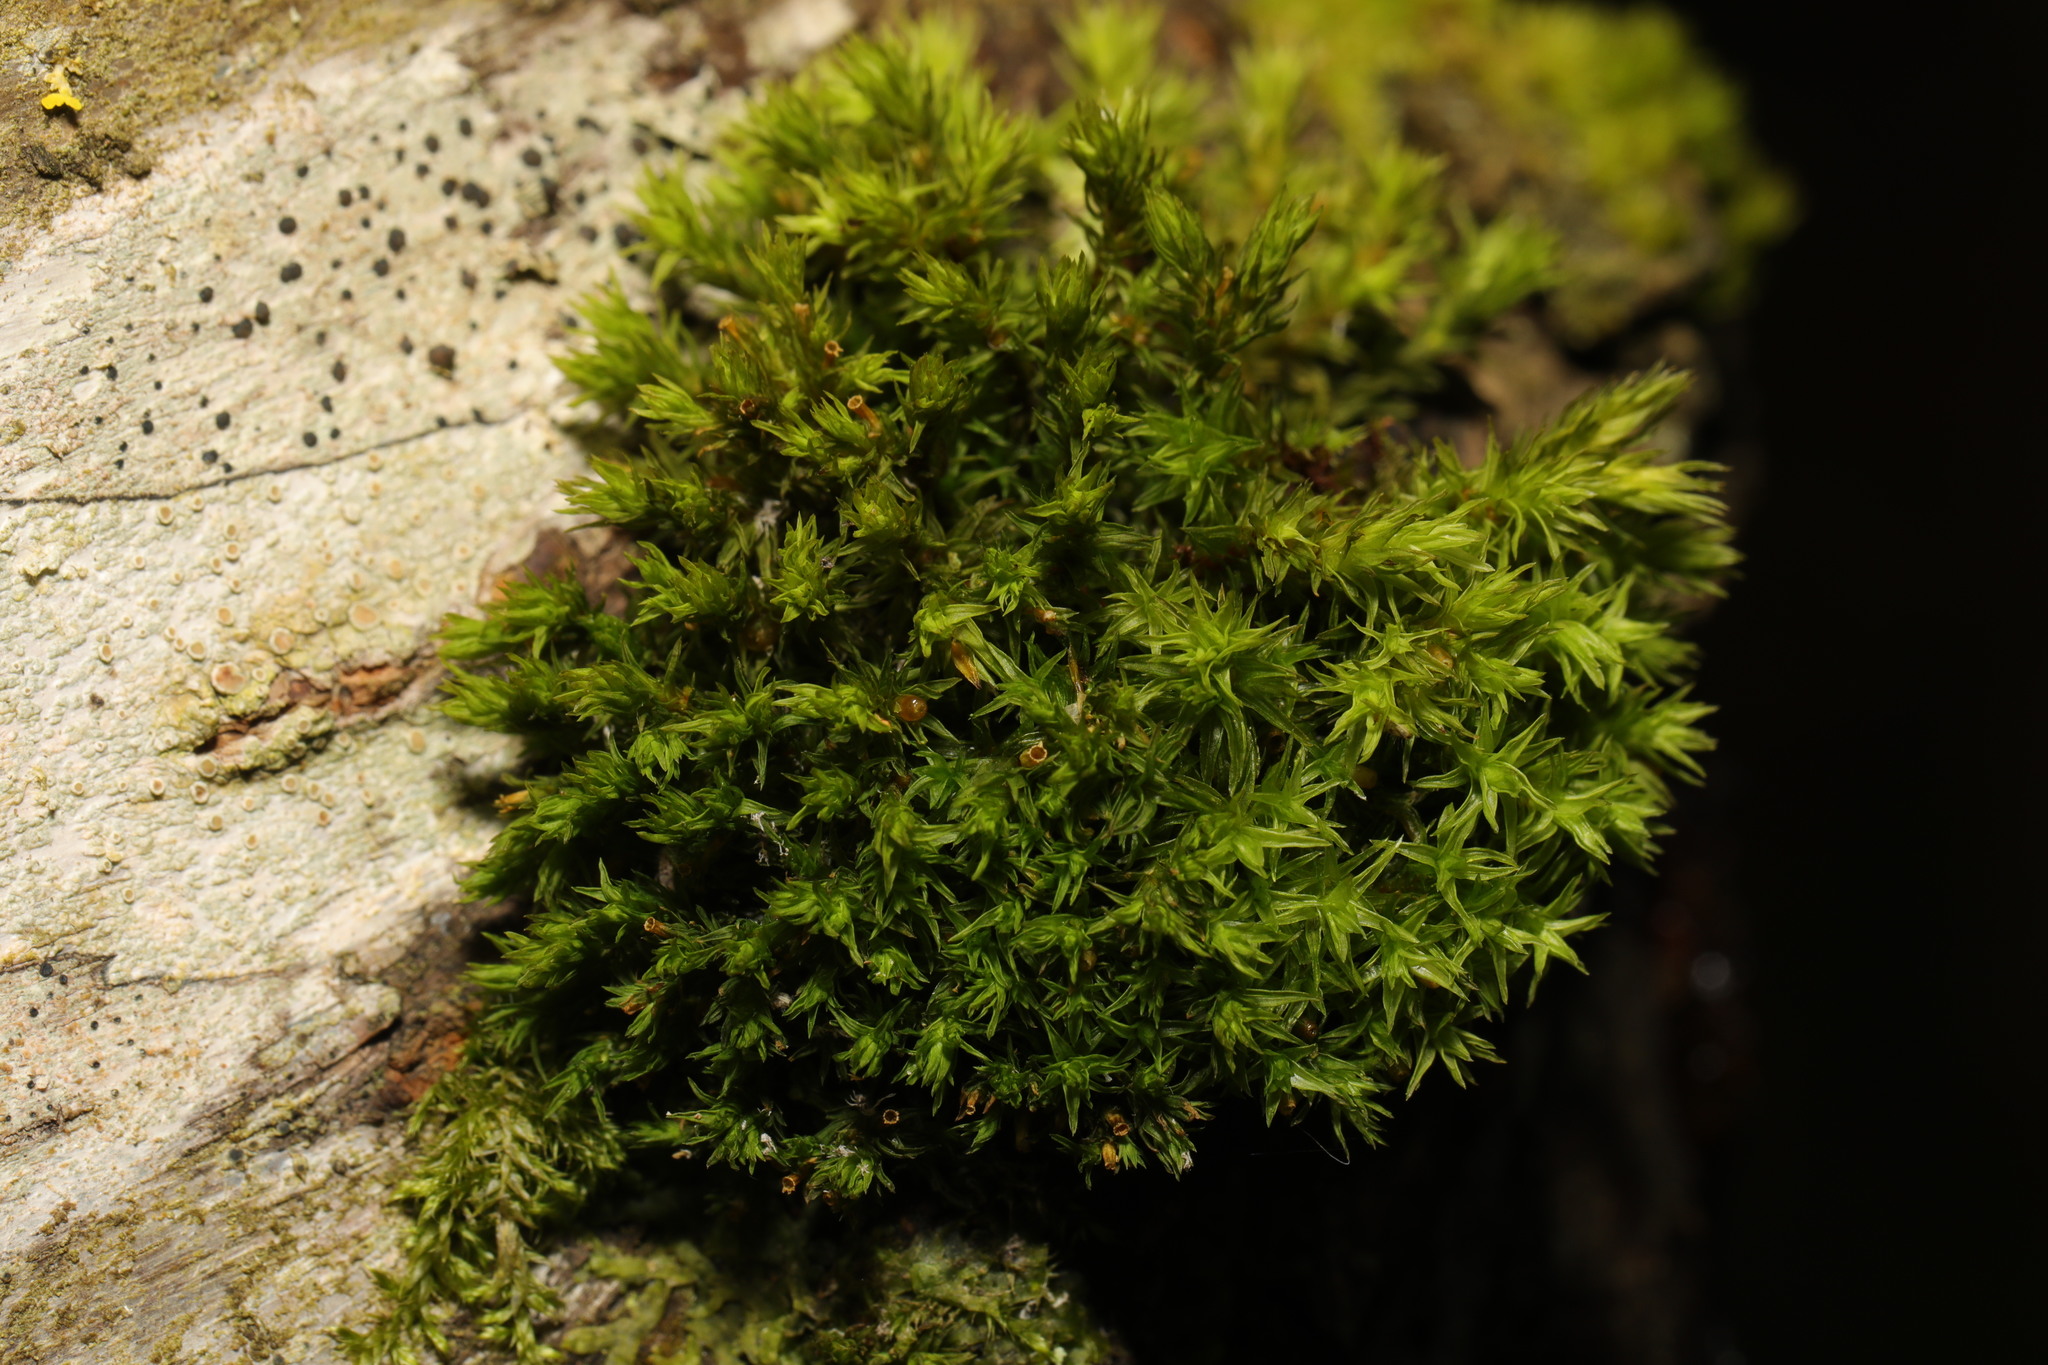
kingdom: Plantae
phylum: Bryophyta
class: Bryopsida
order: Orthotrichales
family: Orthotrichaceae
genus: Lewinskya
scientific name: Lewinskya affinis
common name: Wood bristle-moss
